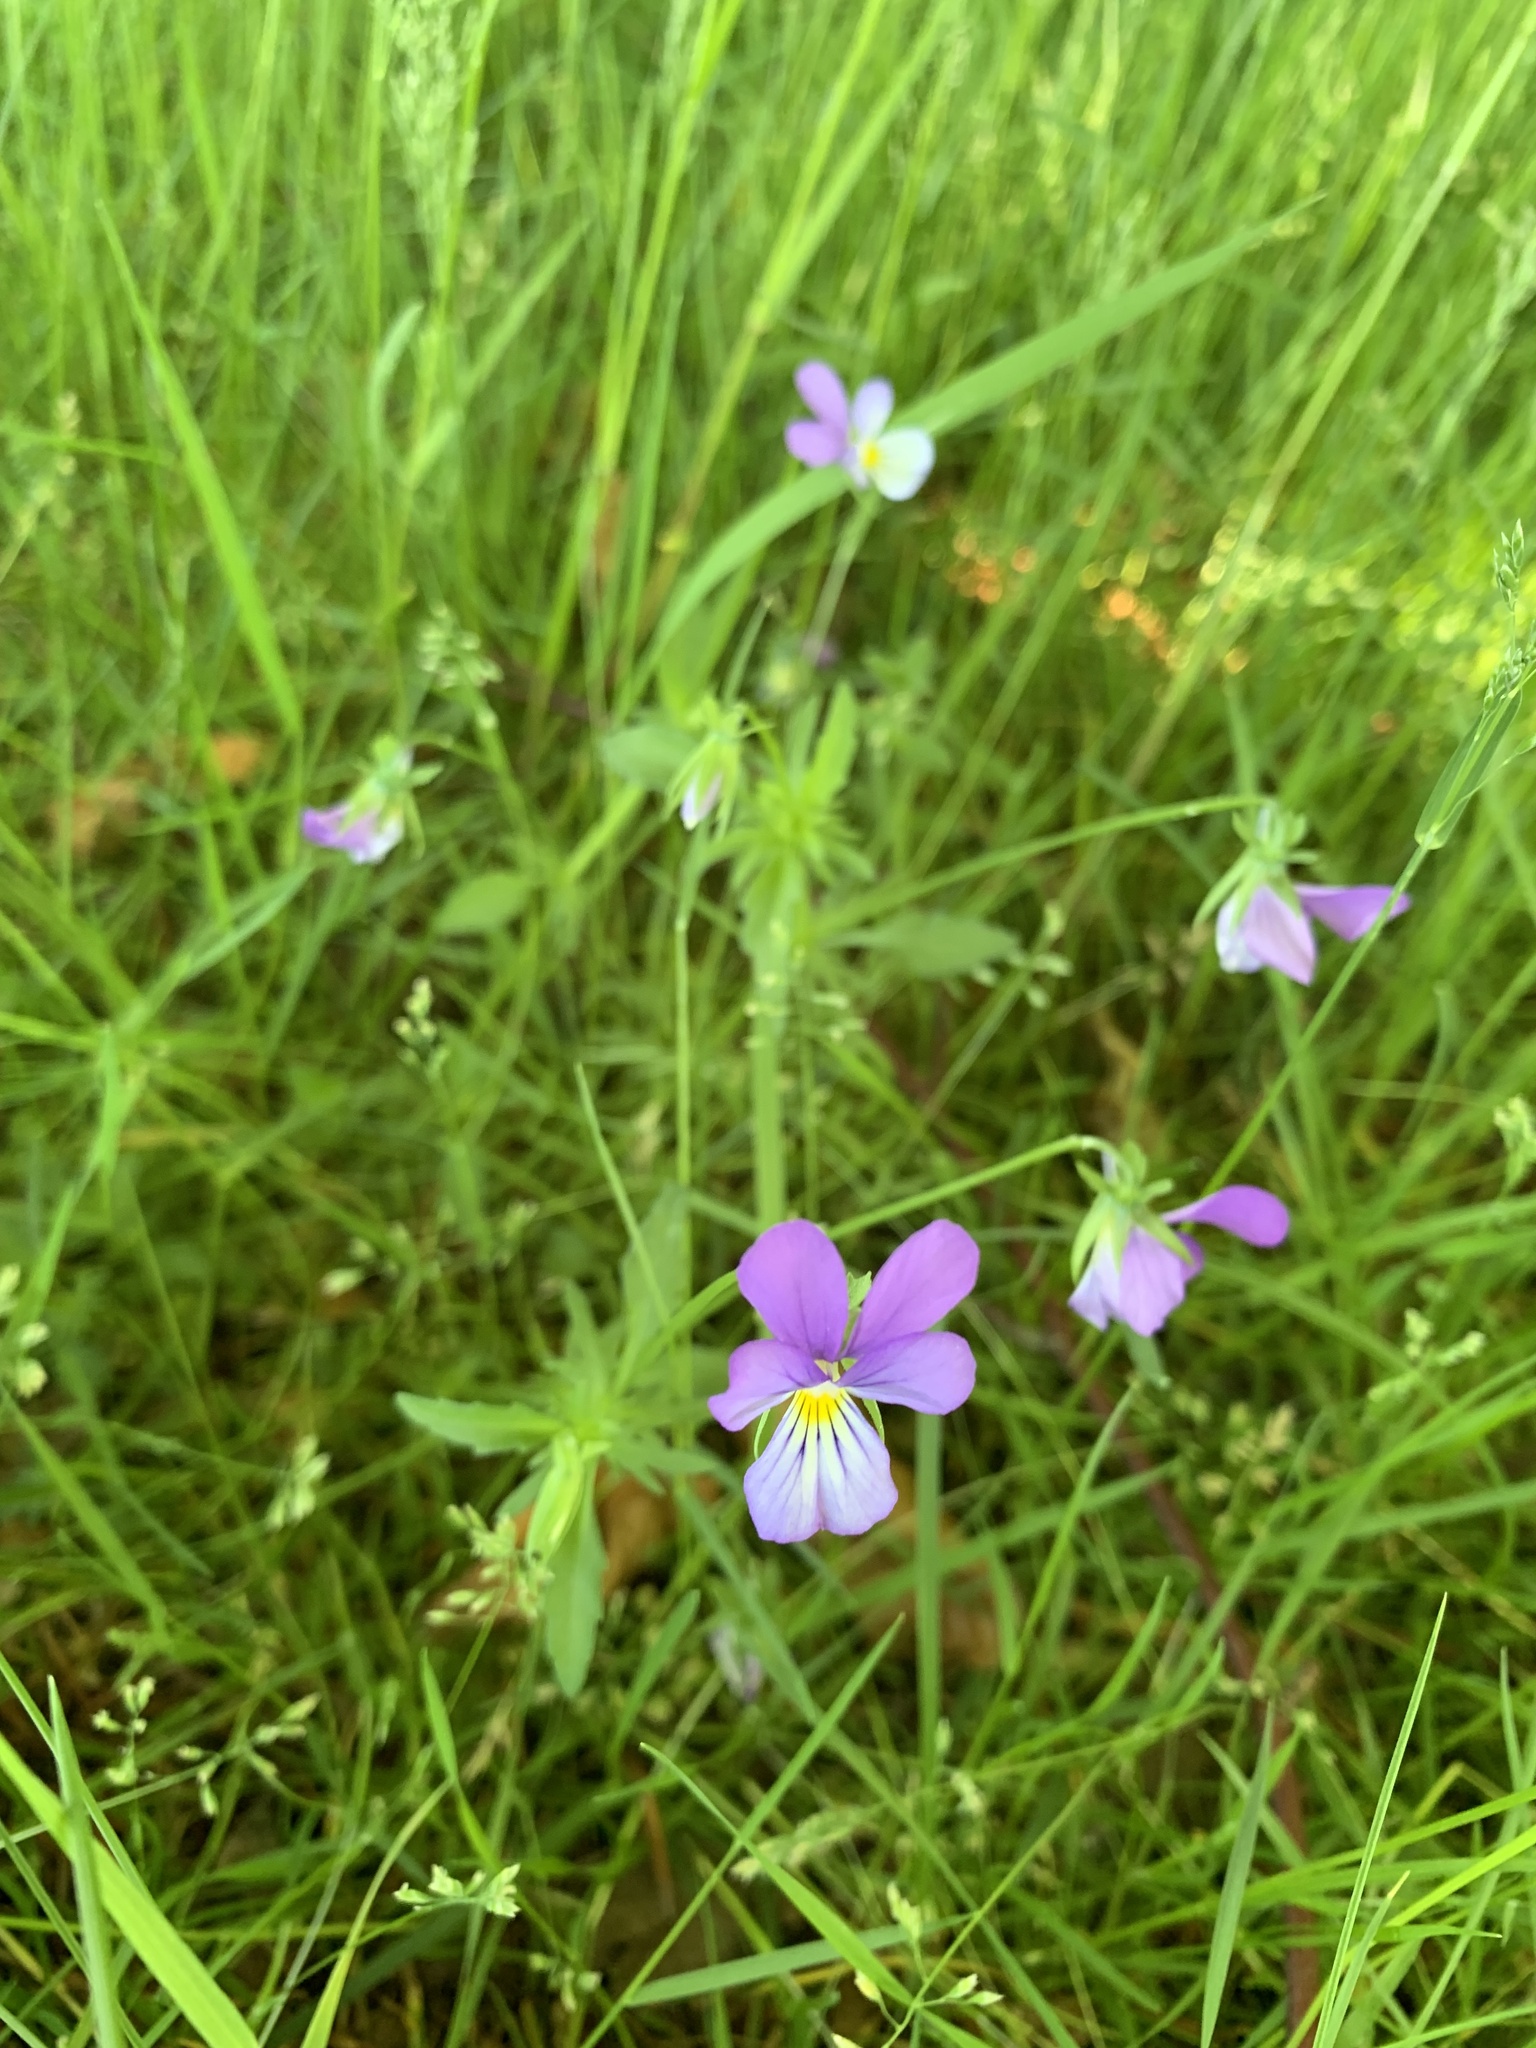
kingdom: Plantae
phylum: Tracheophyta
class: Magnoliopsida
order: Malpighiales
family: Violaceae
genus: Viola
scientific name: Viola tricolor
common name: Pansy
